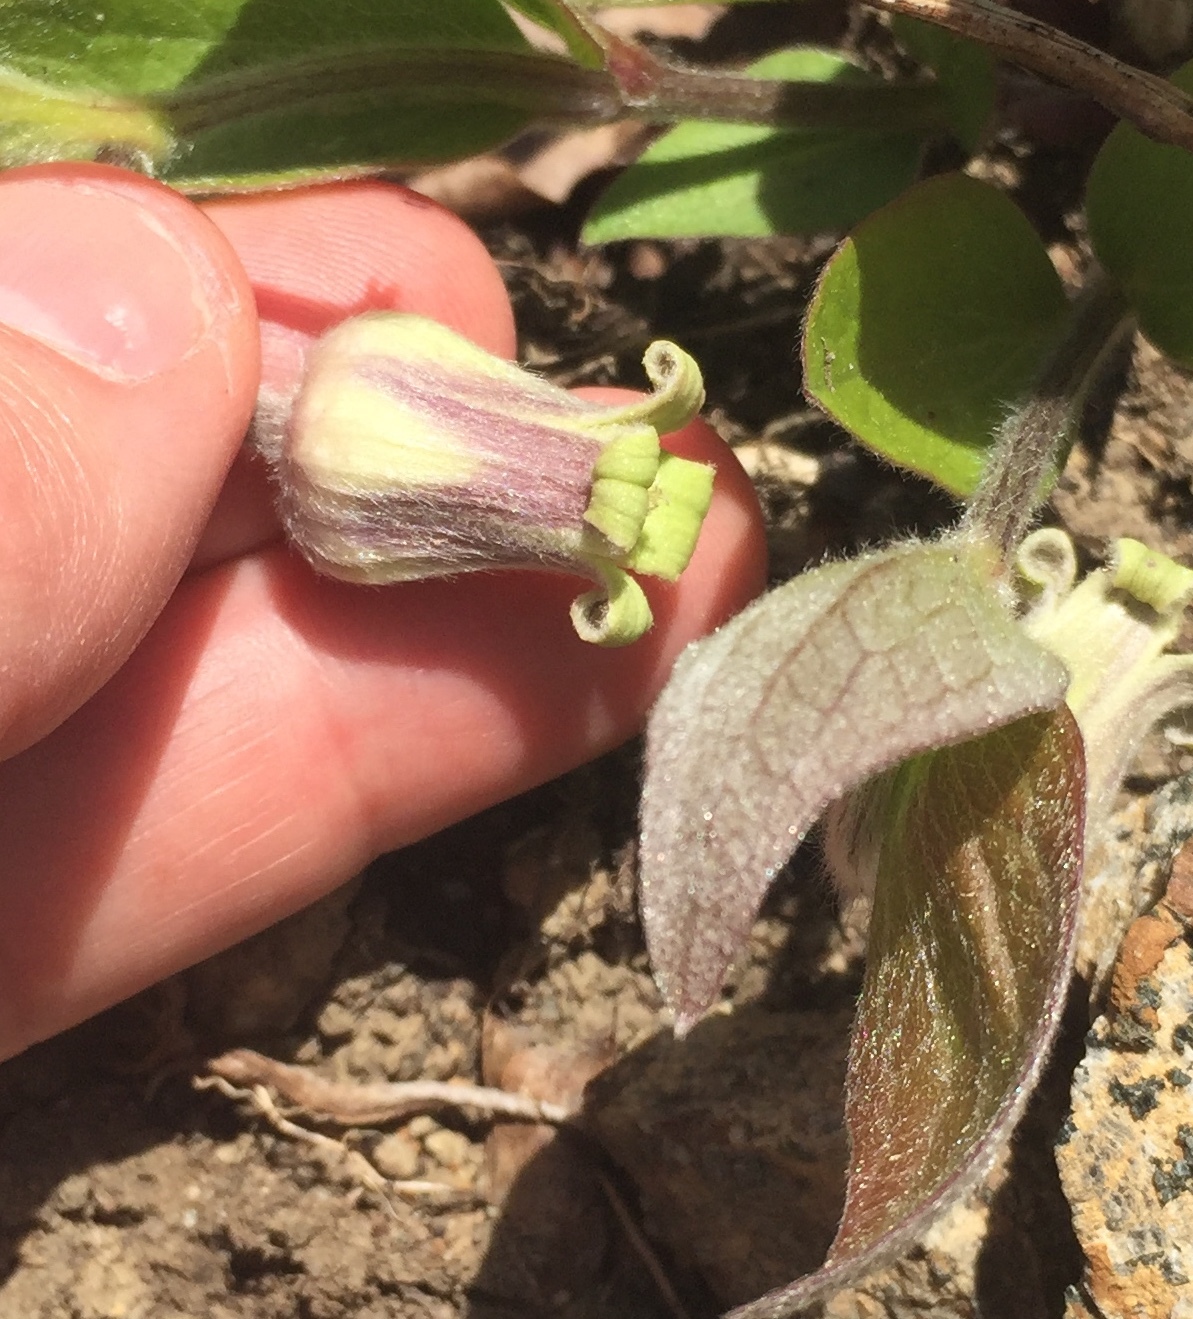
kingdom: Plantae
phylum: Tracheophyta
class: Magnoliopsida
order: Ranunculales
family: Ranunculaceae
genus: Clematis
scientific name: Clematis ochroleuca
